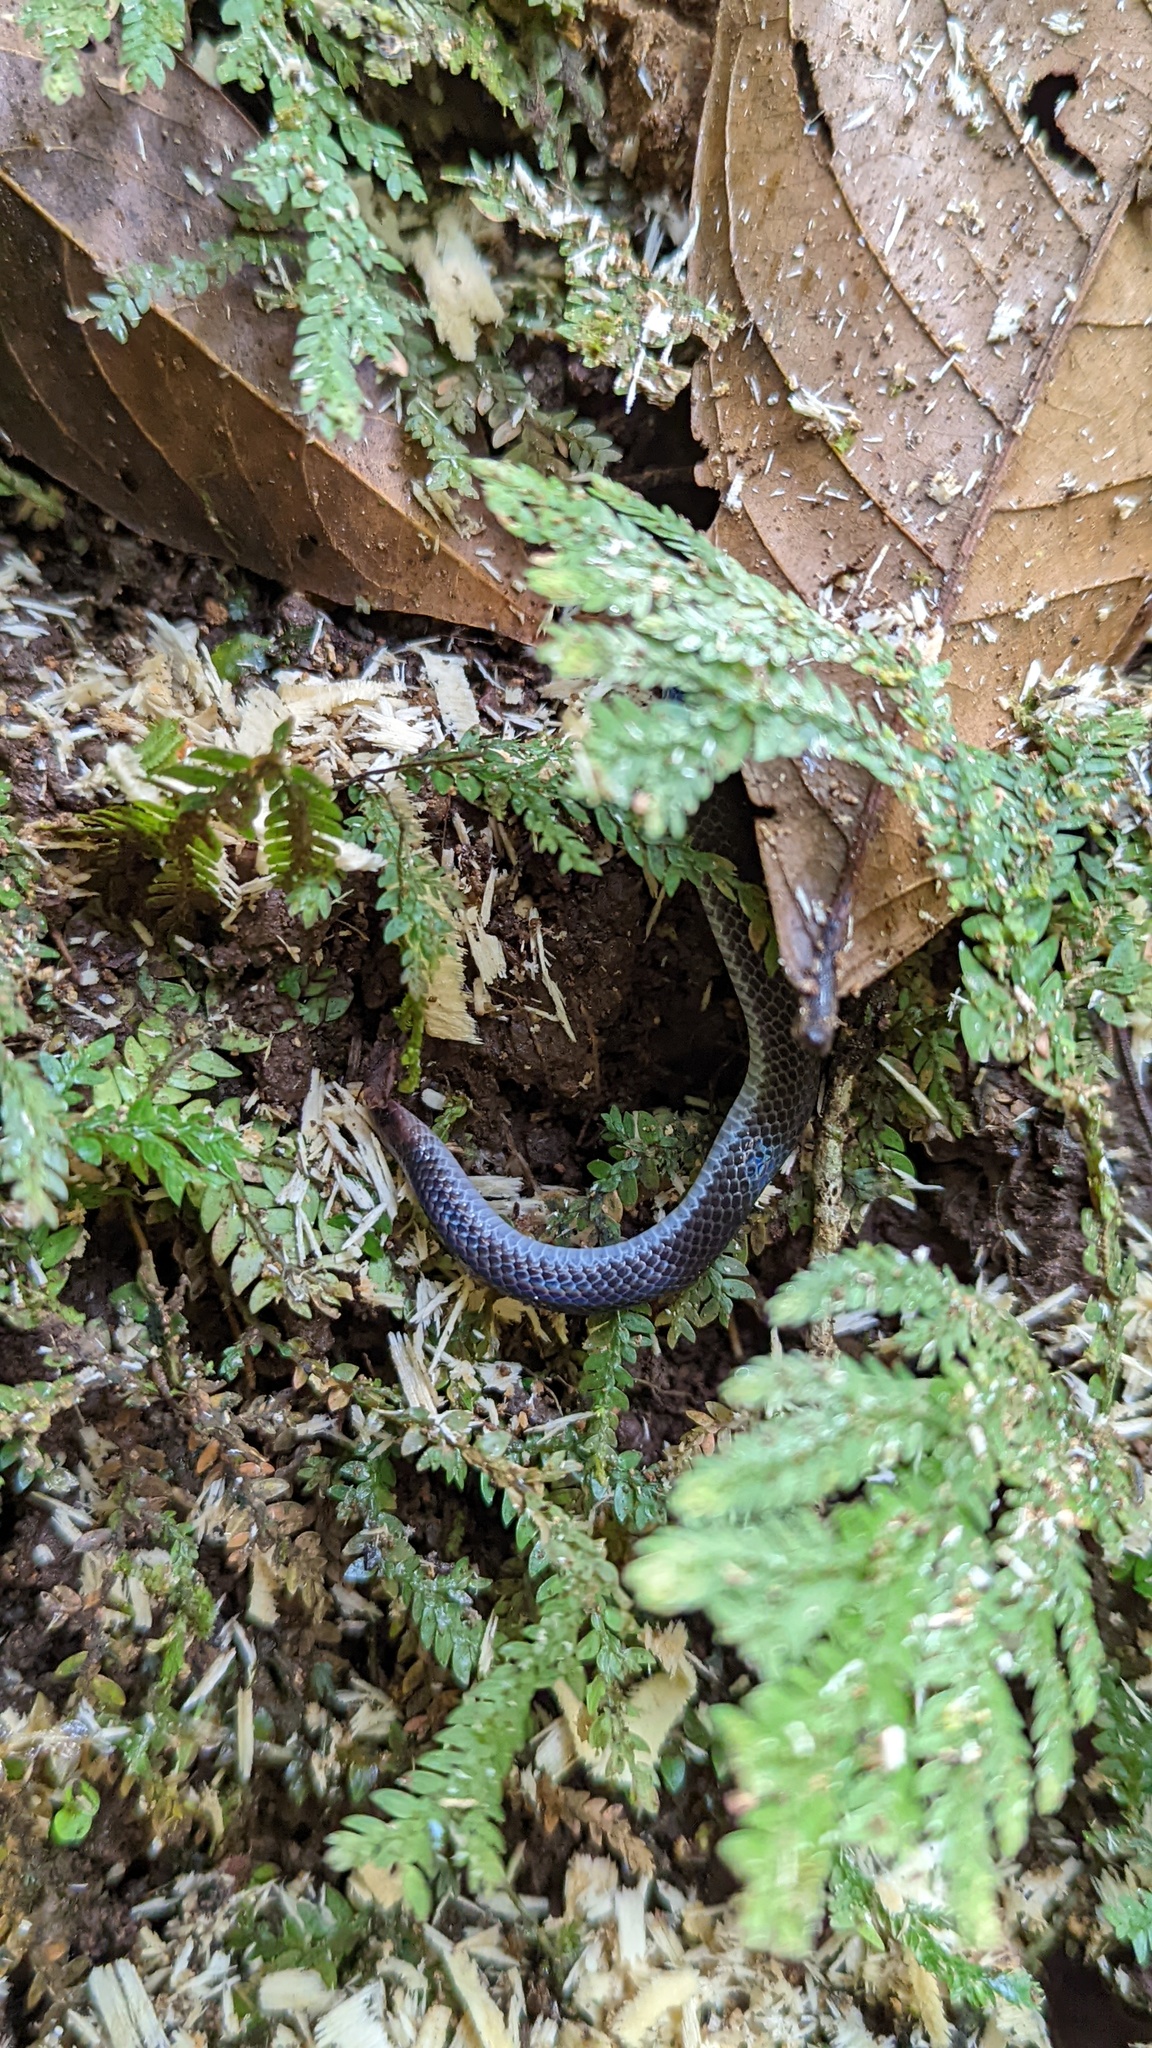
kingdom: Animalia
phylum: Chordata
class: Squamata
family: Colubridae
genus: Geophis
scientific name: Geophis hoffmanni
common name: Hoffmann's earth snake
